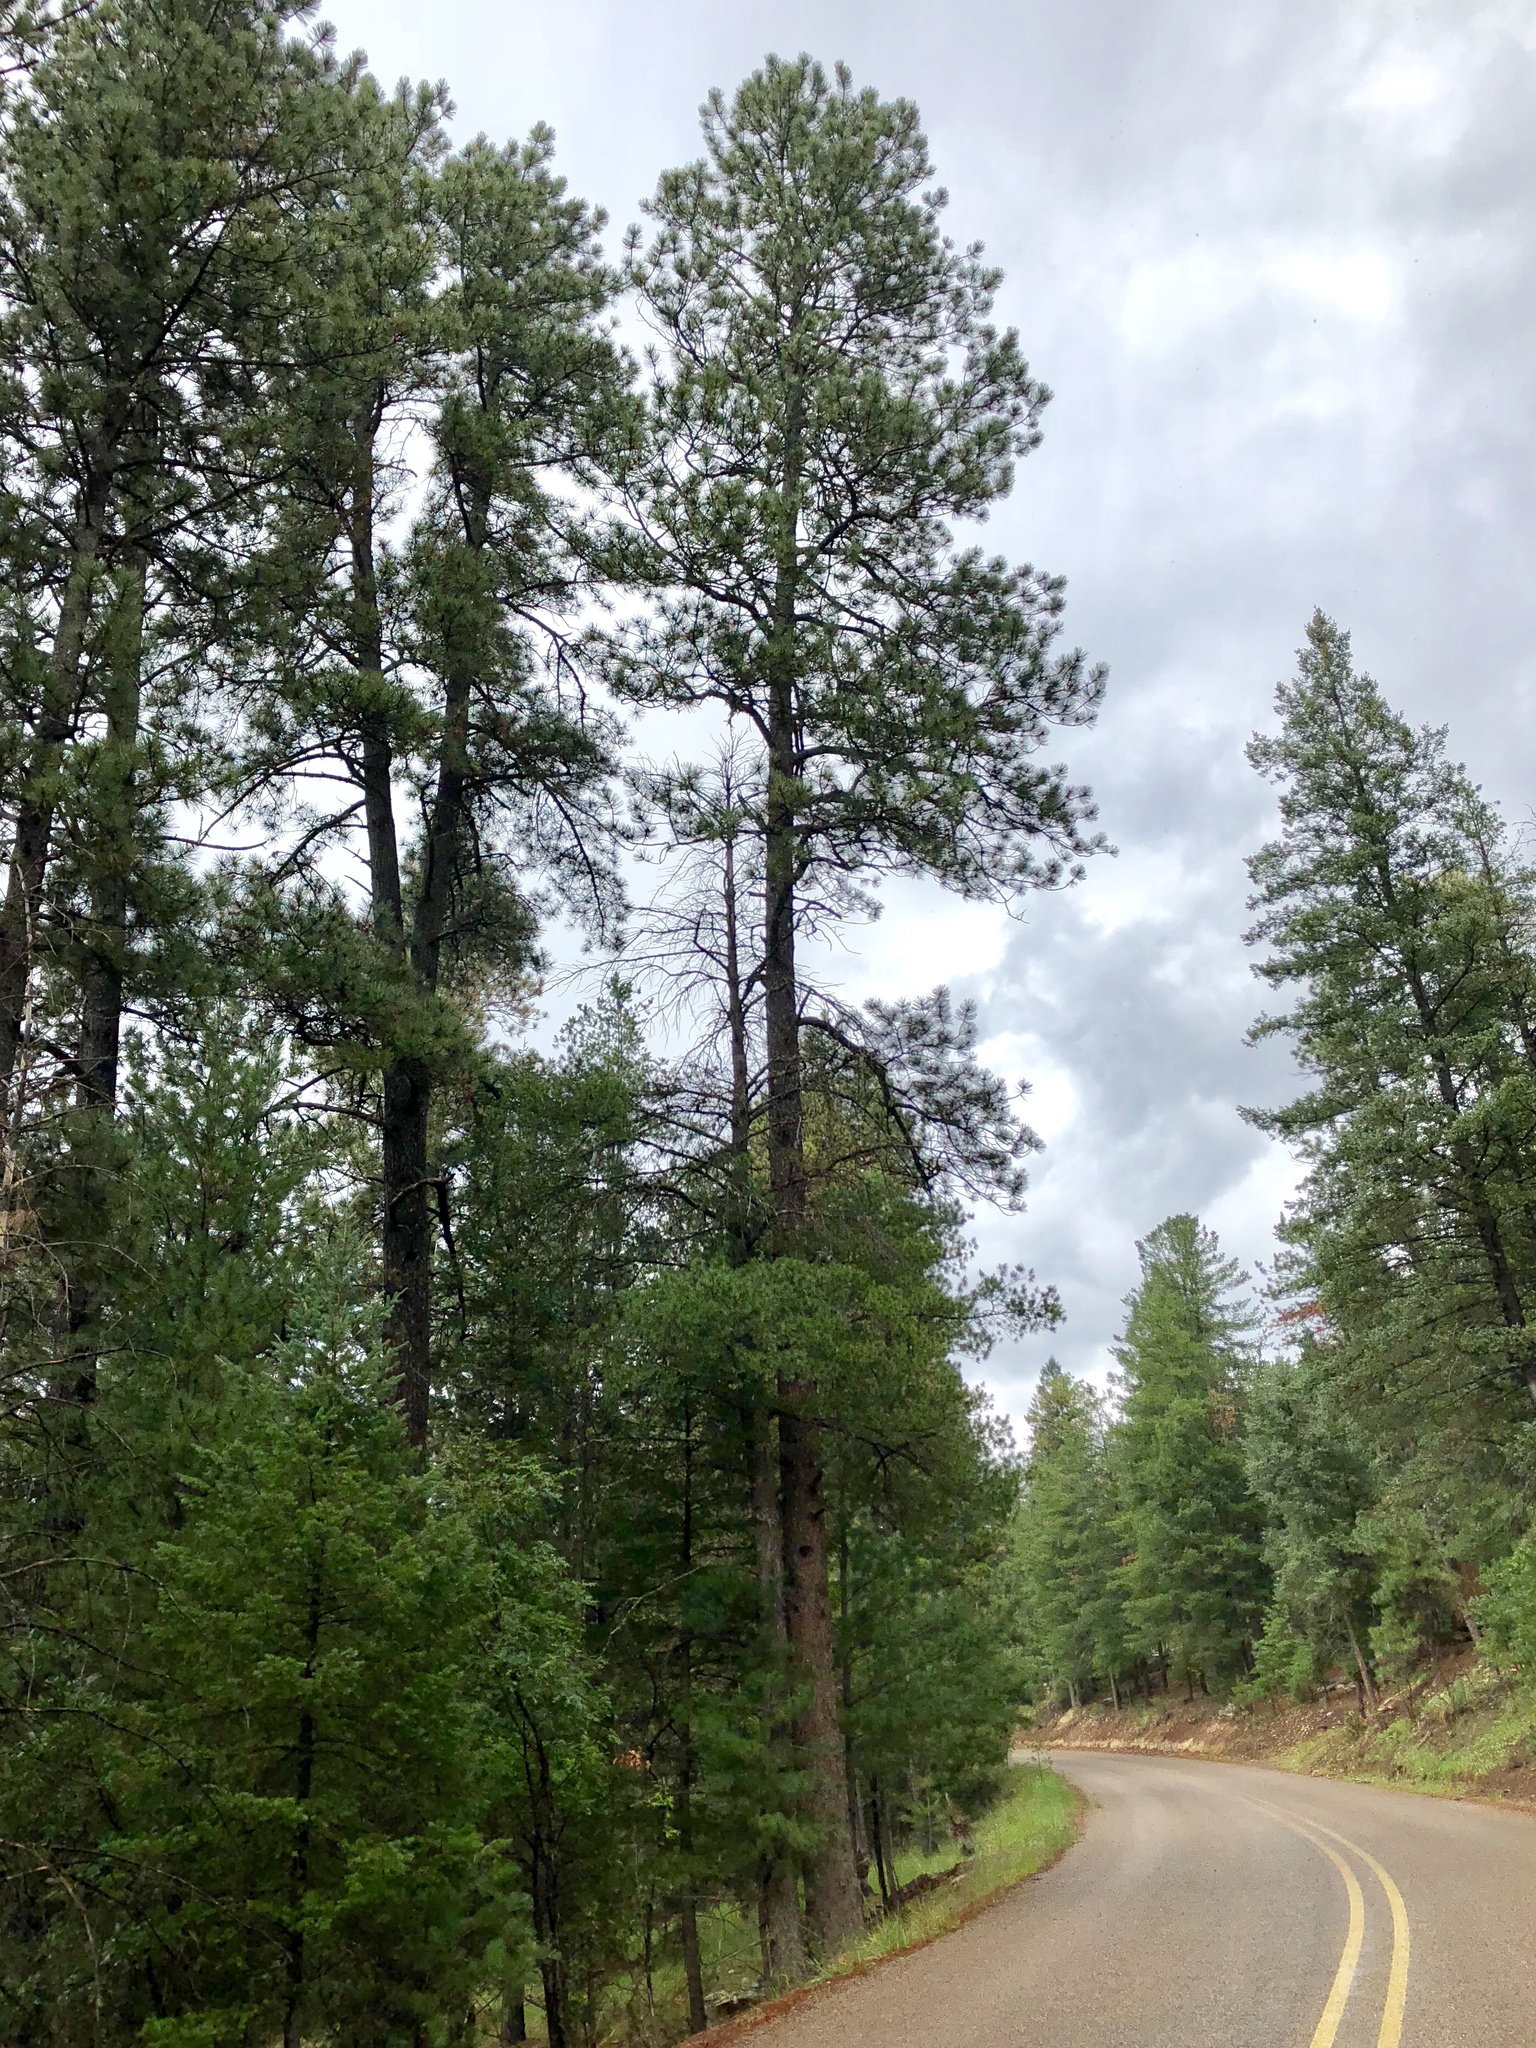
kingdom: Plantae
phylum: Tracheophyta
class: Pinopsida
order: Pinales
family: Pinaceae
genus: Pinus
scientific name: Pinus ponderosa
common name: Western yellow-pine
